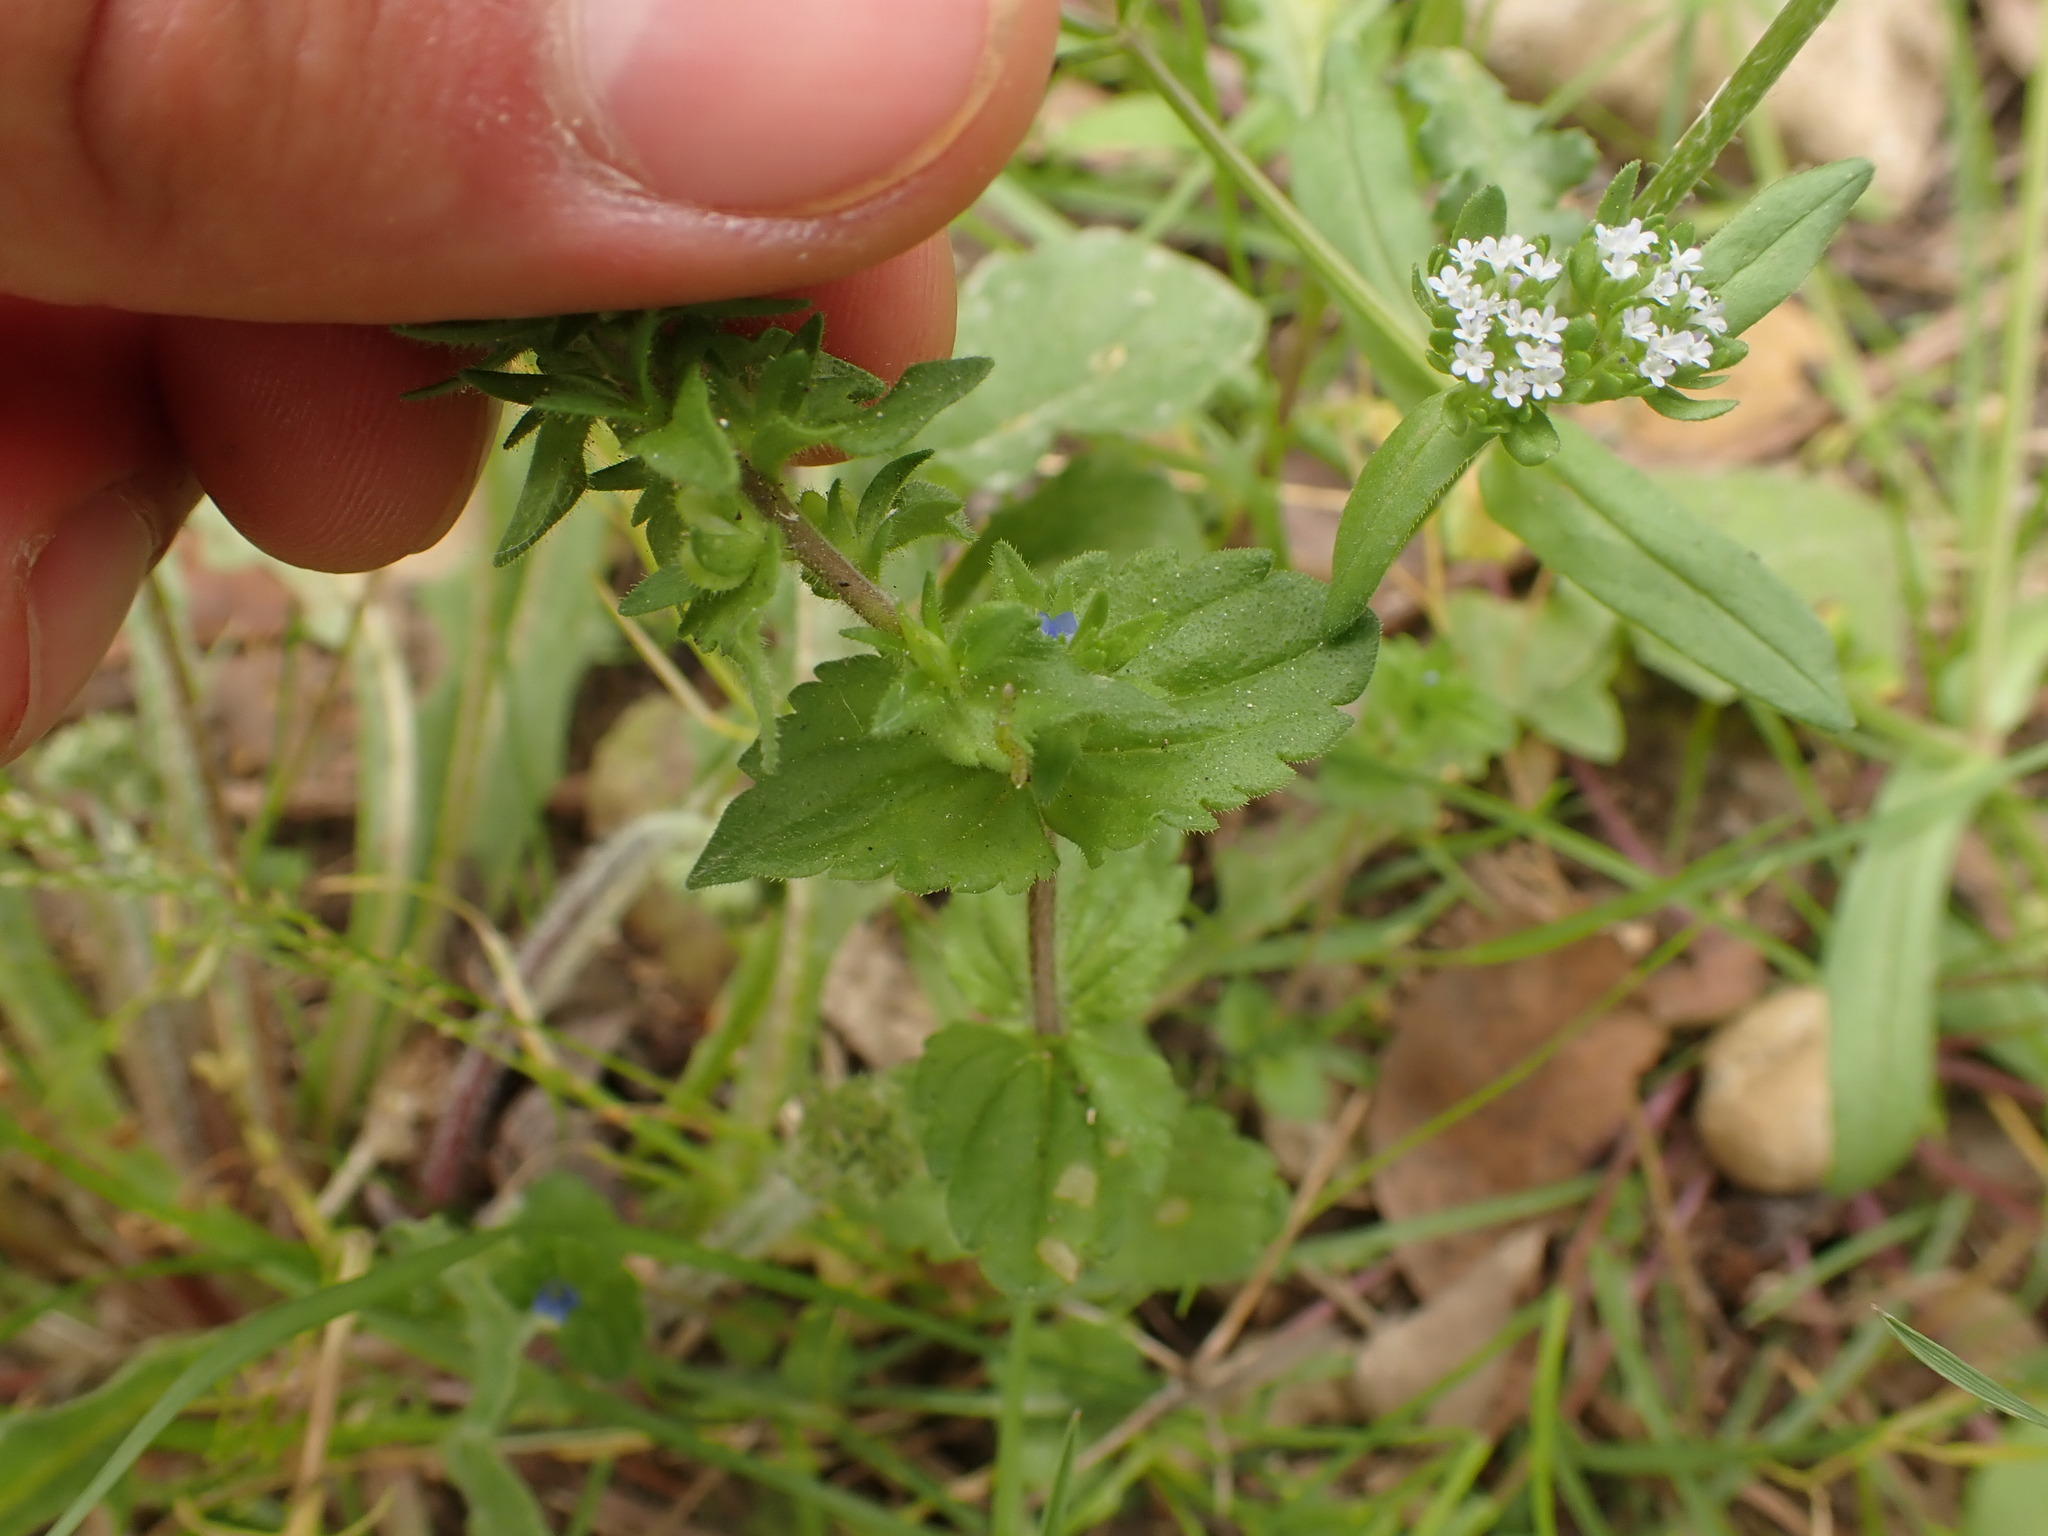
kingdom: Plantae
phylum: Tracheophyta
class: Magnoliopsida
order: Lamiales
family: Plantaginaceae
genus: Veronica
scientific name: Veronica arvensis
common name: Corn speedwell
